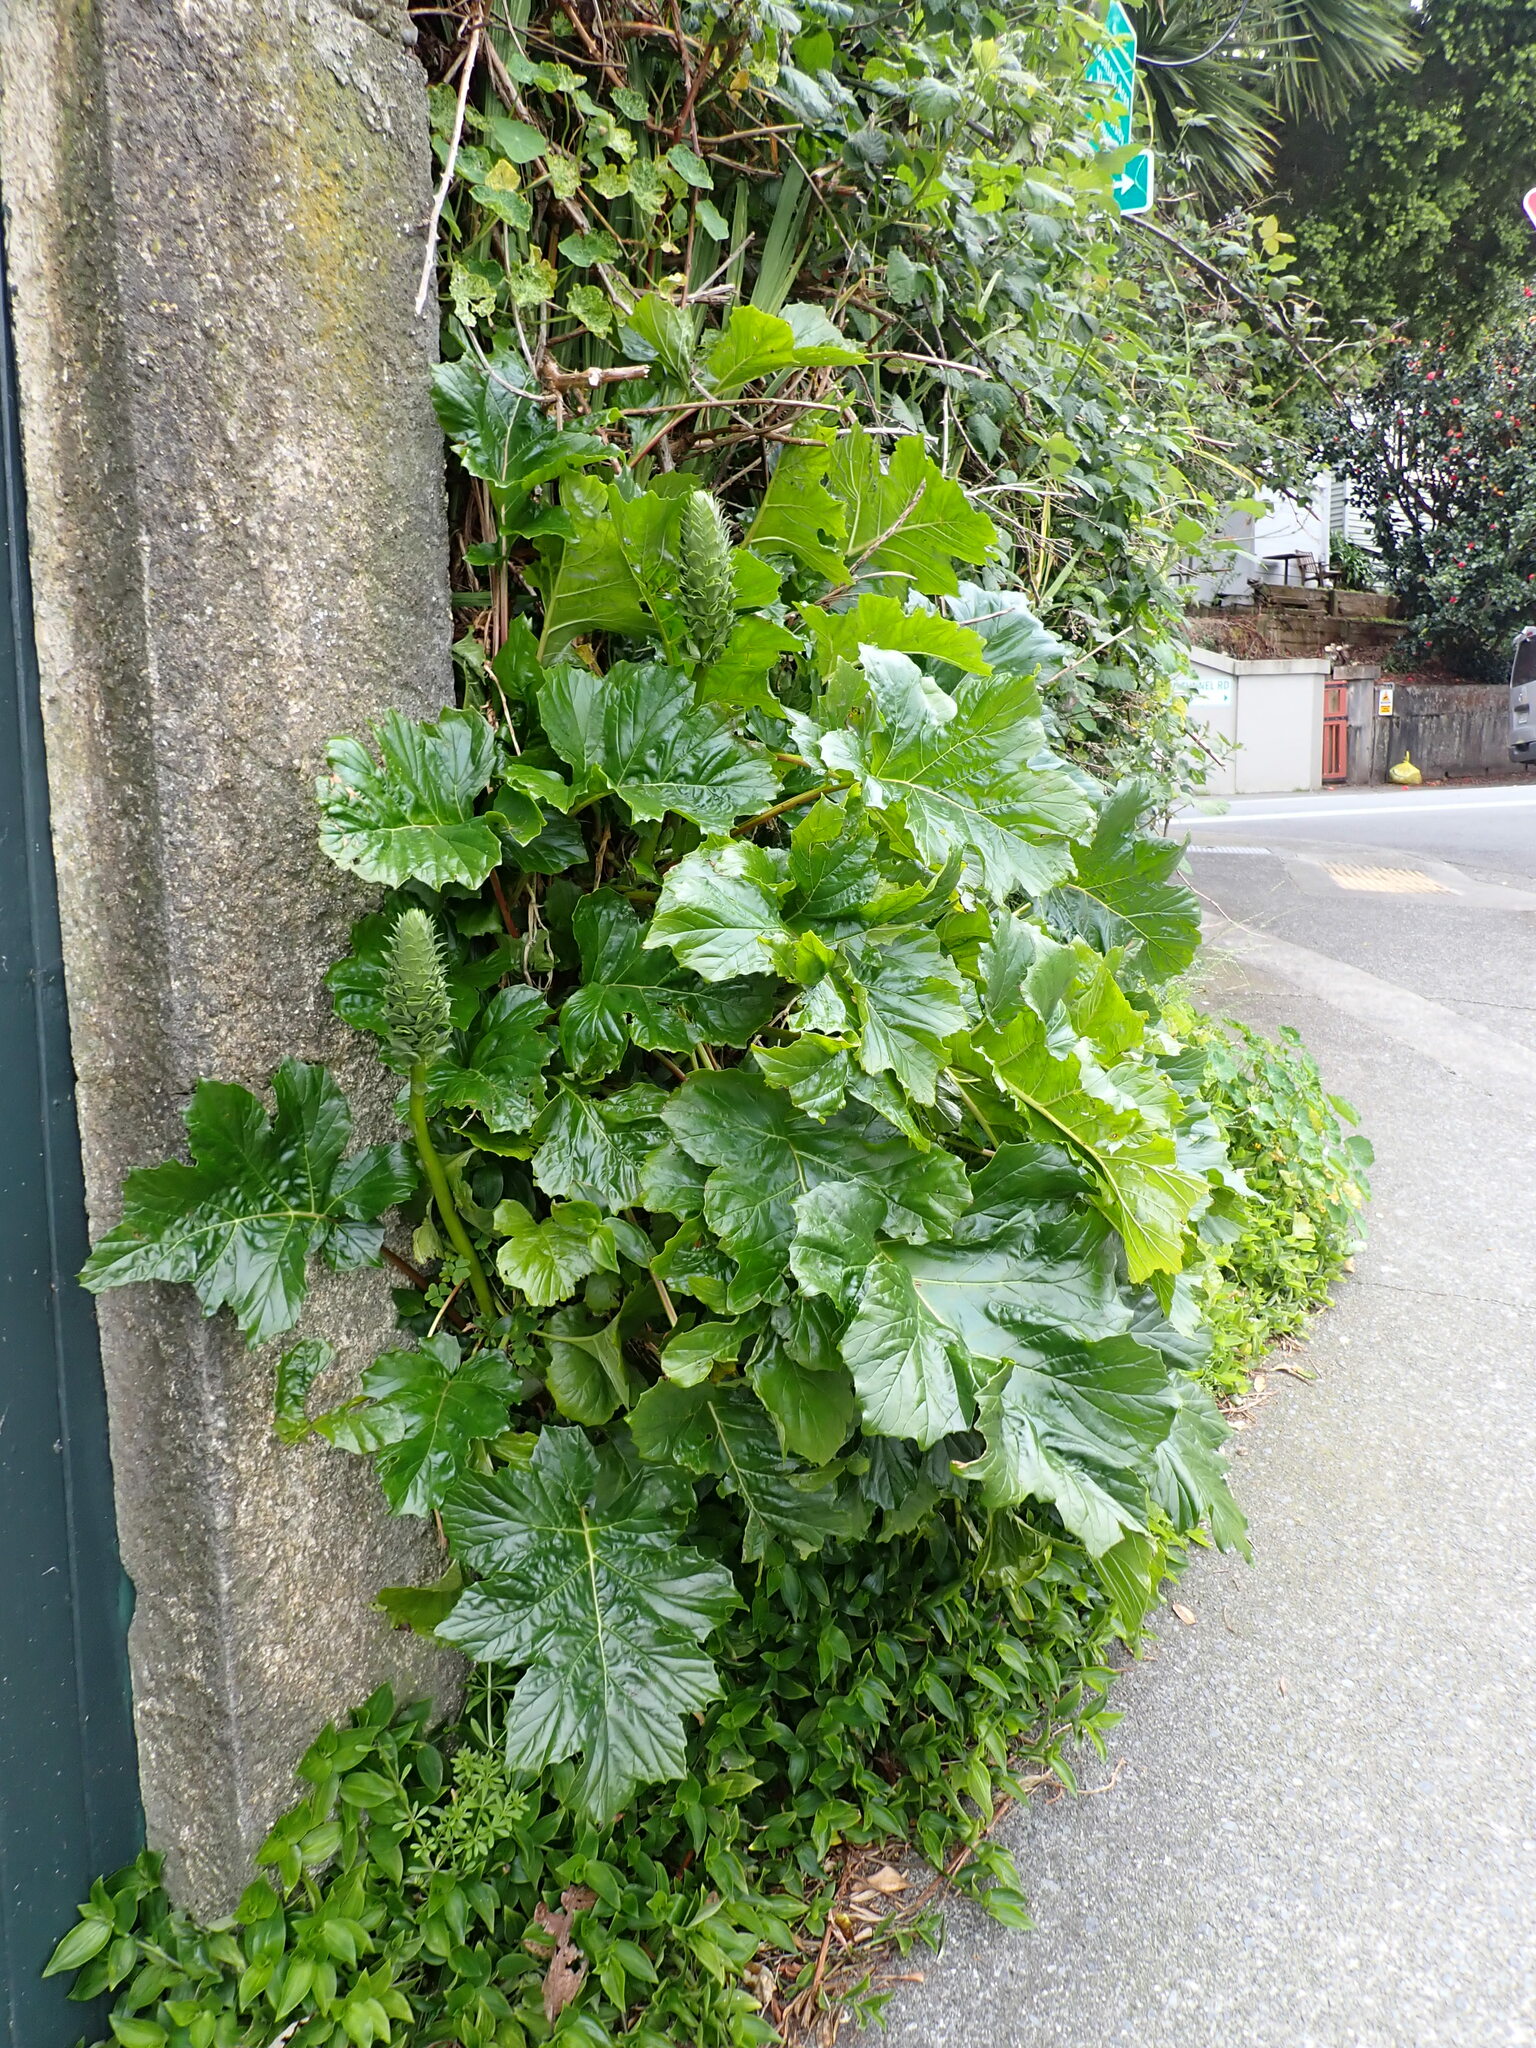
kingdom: Plantae
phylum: Tracheophyta
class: Magnoliopsida
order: Lamiales
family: Acanthaceae
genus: Acanthus
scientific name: Acanthus mollis
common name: Bear's-breech
